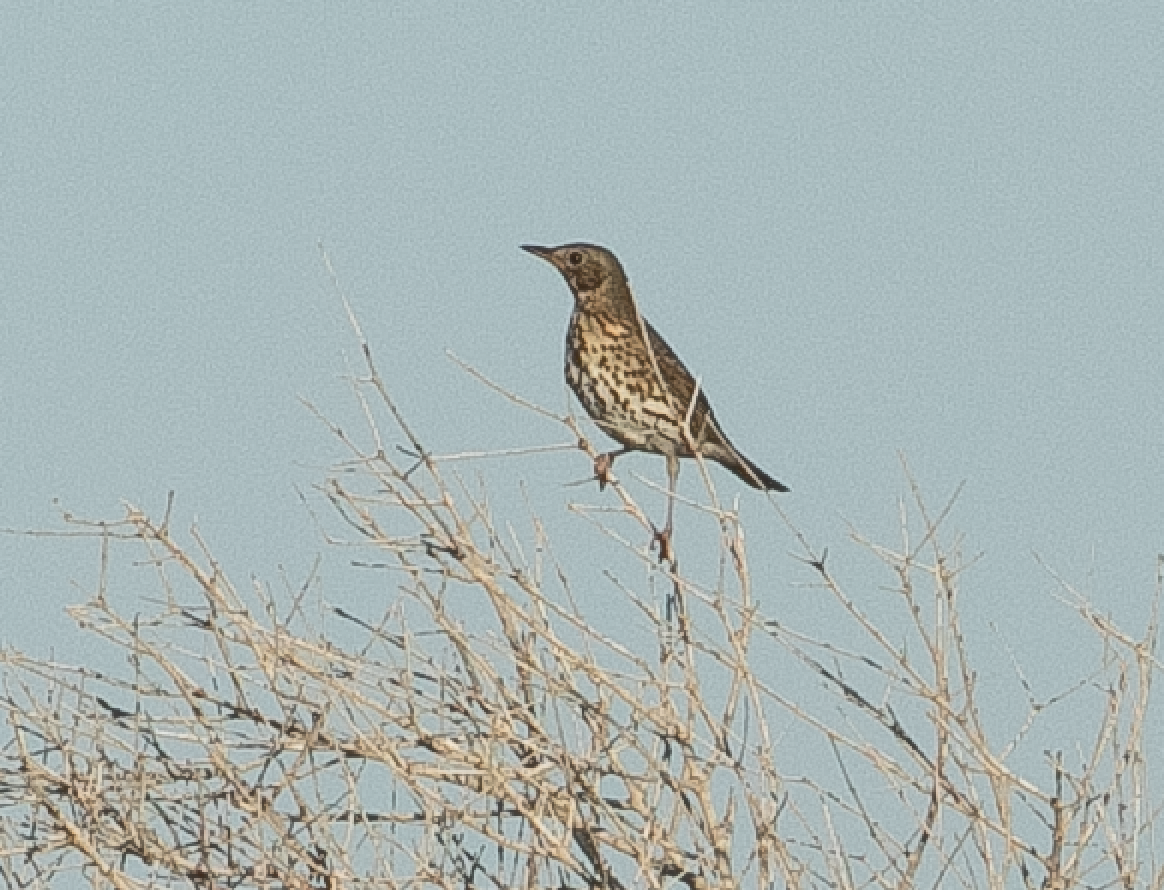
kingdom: Animalia
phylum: Chordata
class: Aves
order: Passeriformes
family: Turdidae
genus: Turdus
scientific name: Turdus philomelos
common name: Song thrush
